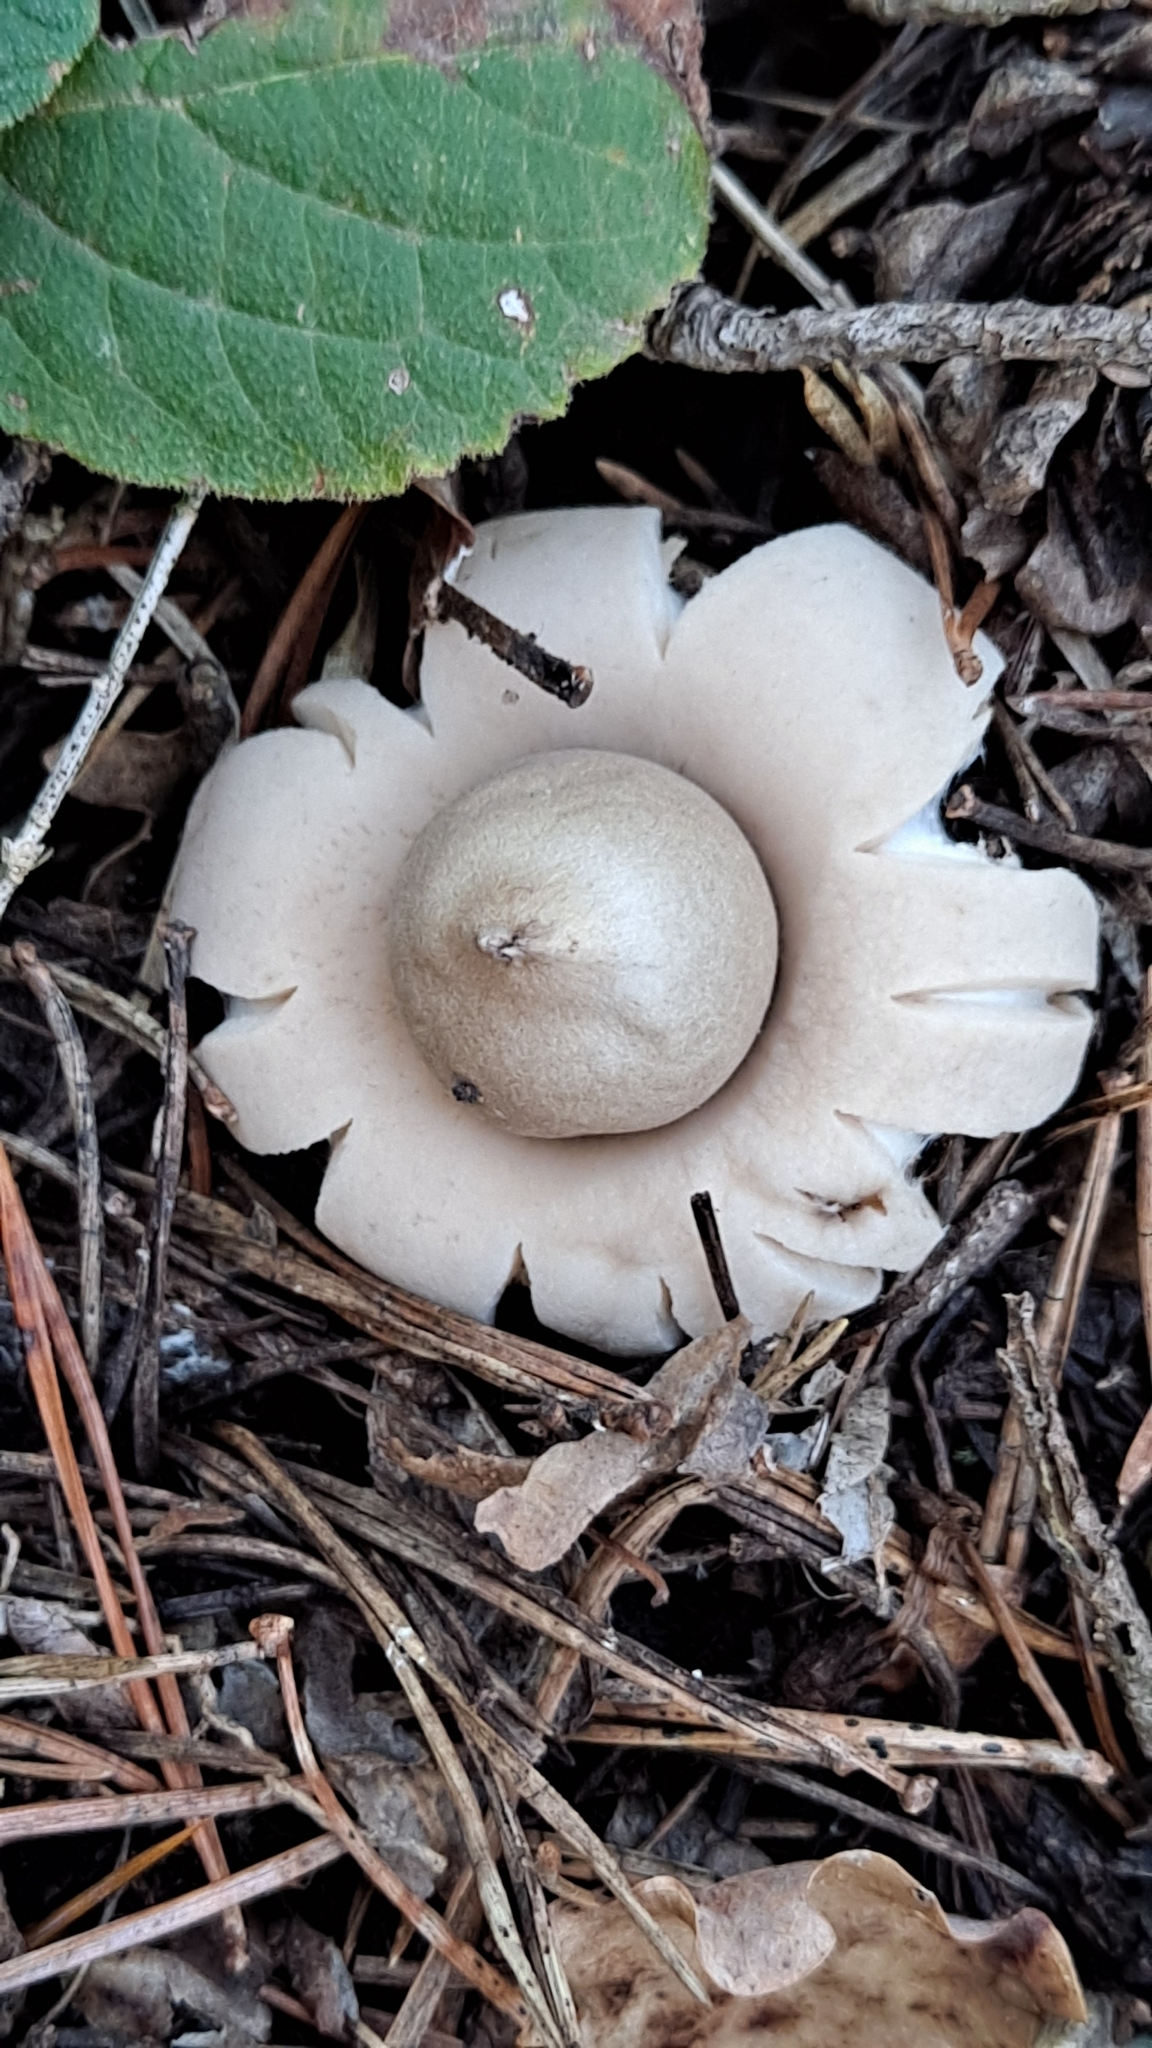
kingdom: Fungi
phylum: Basidiomycota
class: Agaricomycetes
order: Geastrales
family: Geastraceae
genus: Geastrum
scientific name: Geastrum fimbriatum
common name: Sessile earthstar
